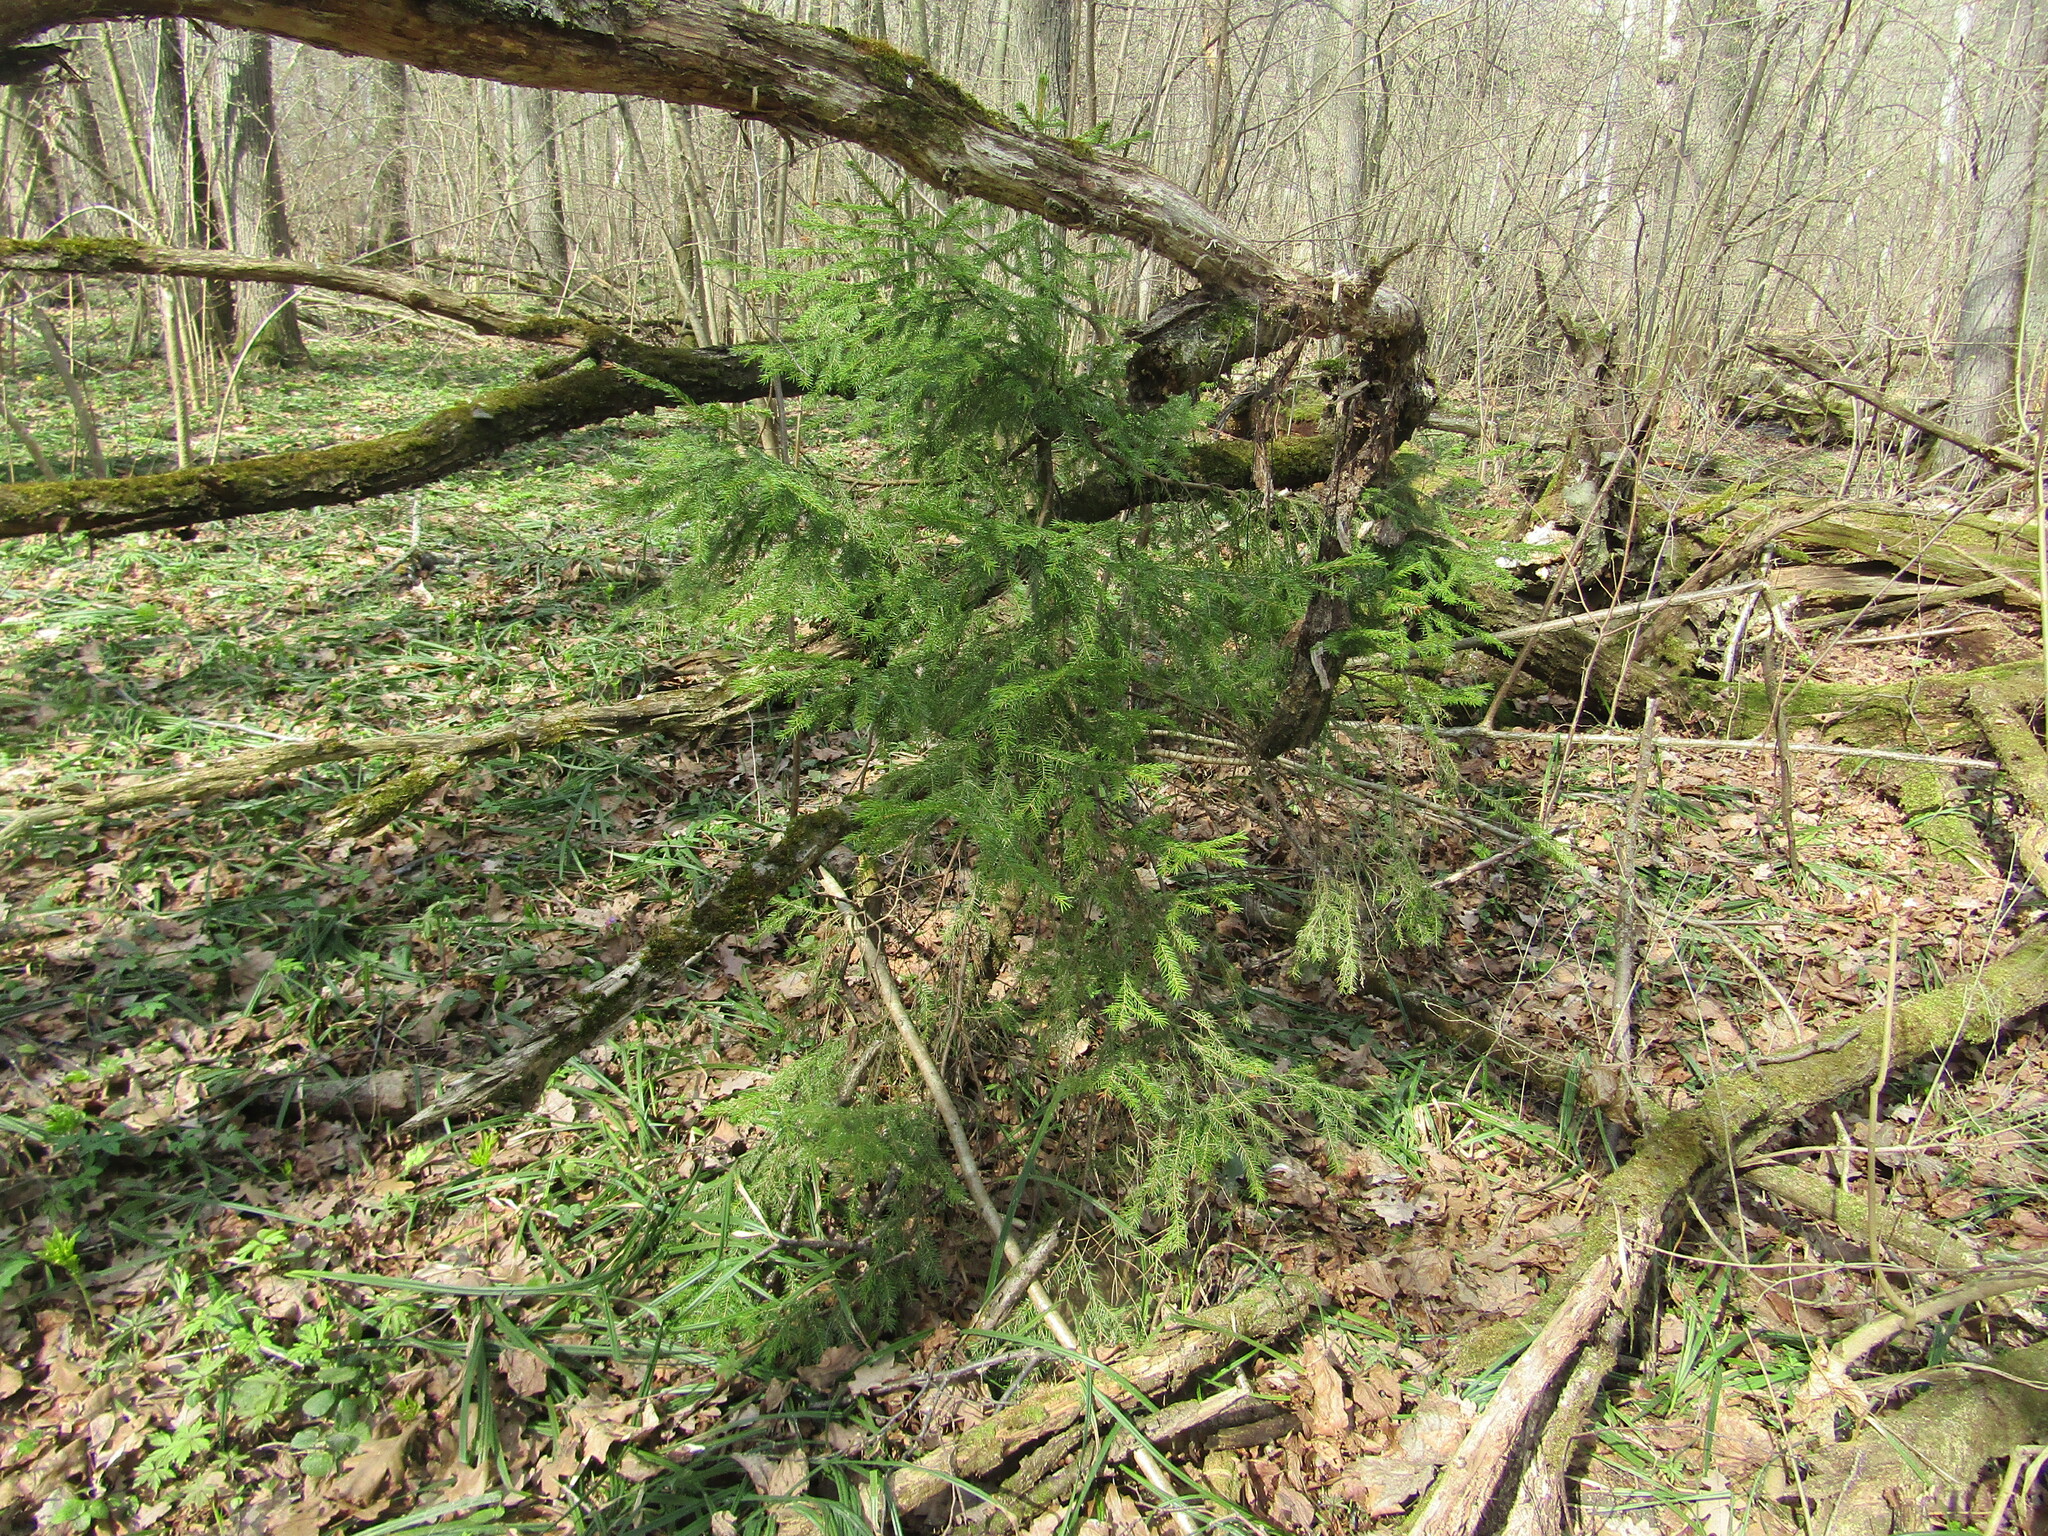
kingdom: Plantae
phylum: Tracheophyta
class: Pinopsida
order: Pinales
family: Pinaceae
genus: Picea
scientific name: Picea abies
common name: Norway spruce
